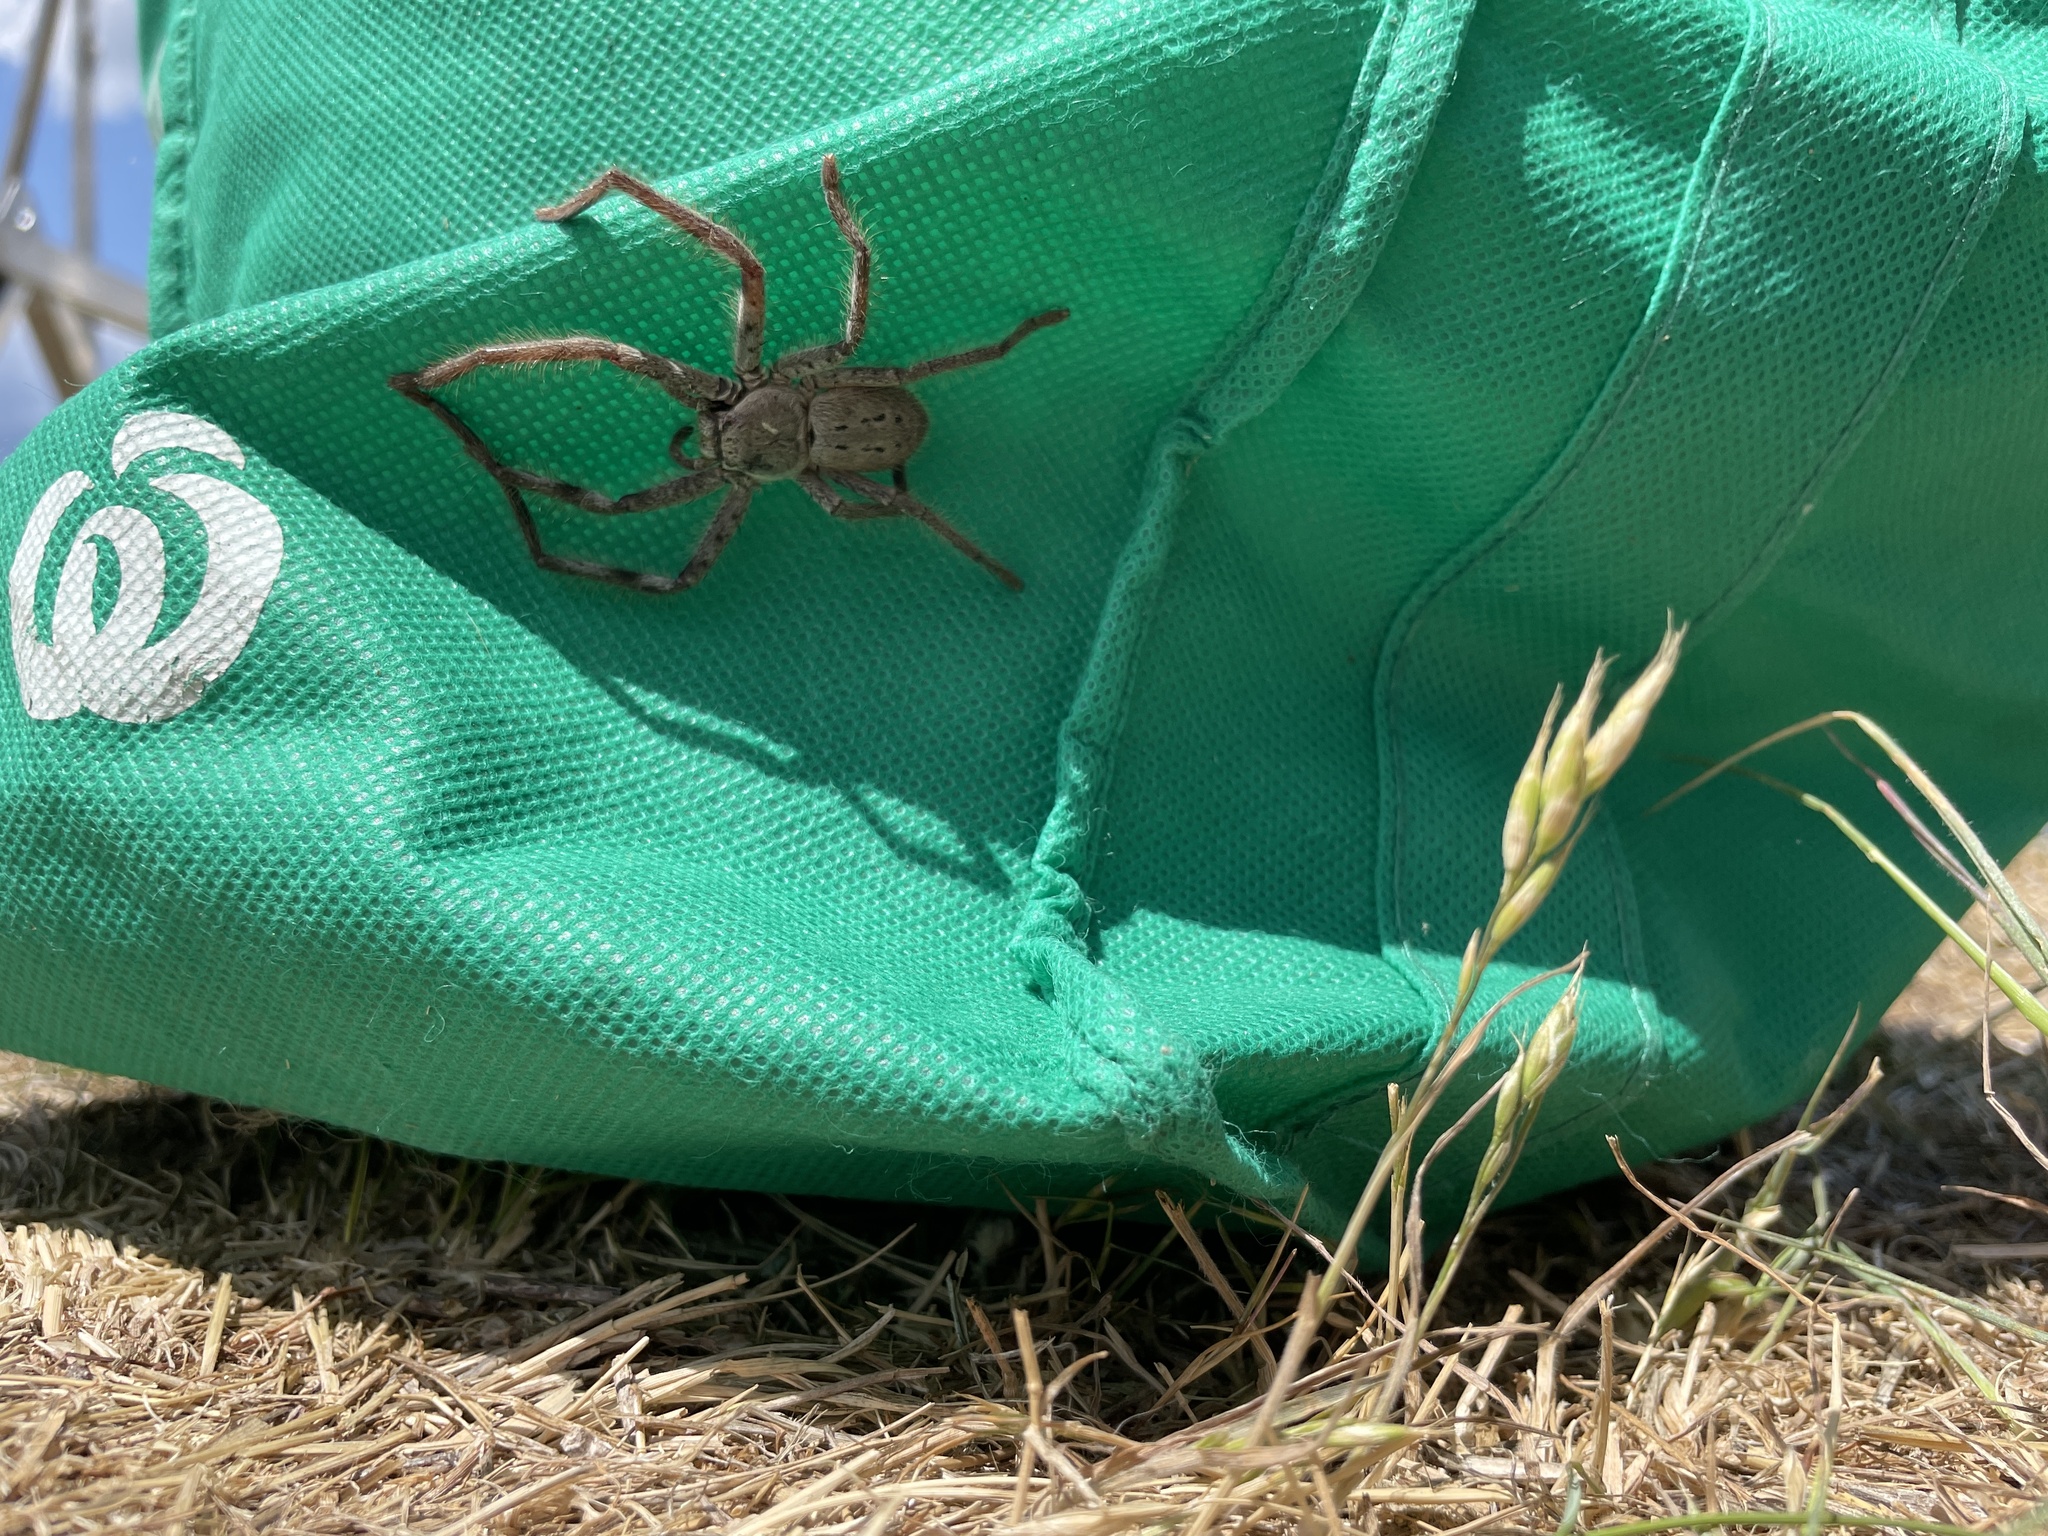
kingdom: Animalia
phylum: Arthropoda
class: Arachnida
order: Araneae
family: Sparassidae
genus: Isopeda
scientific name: Isopeda canberrana
